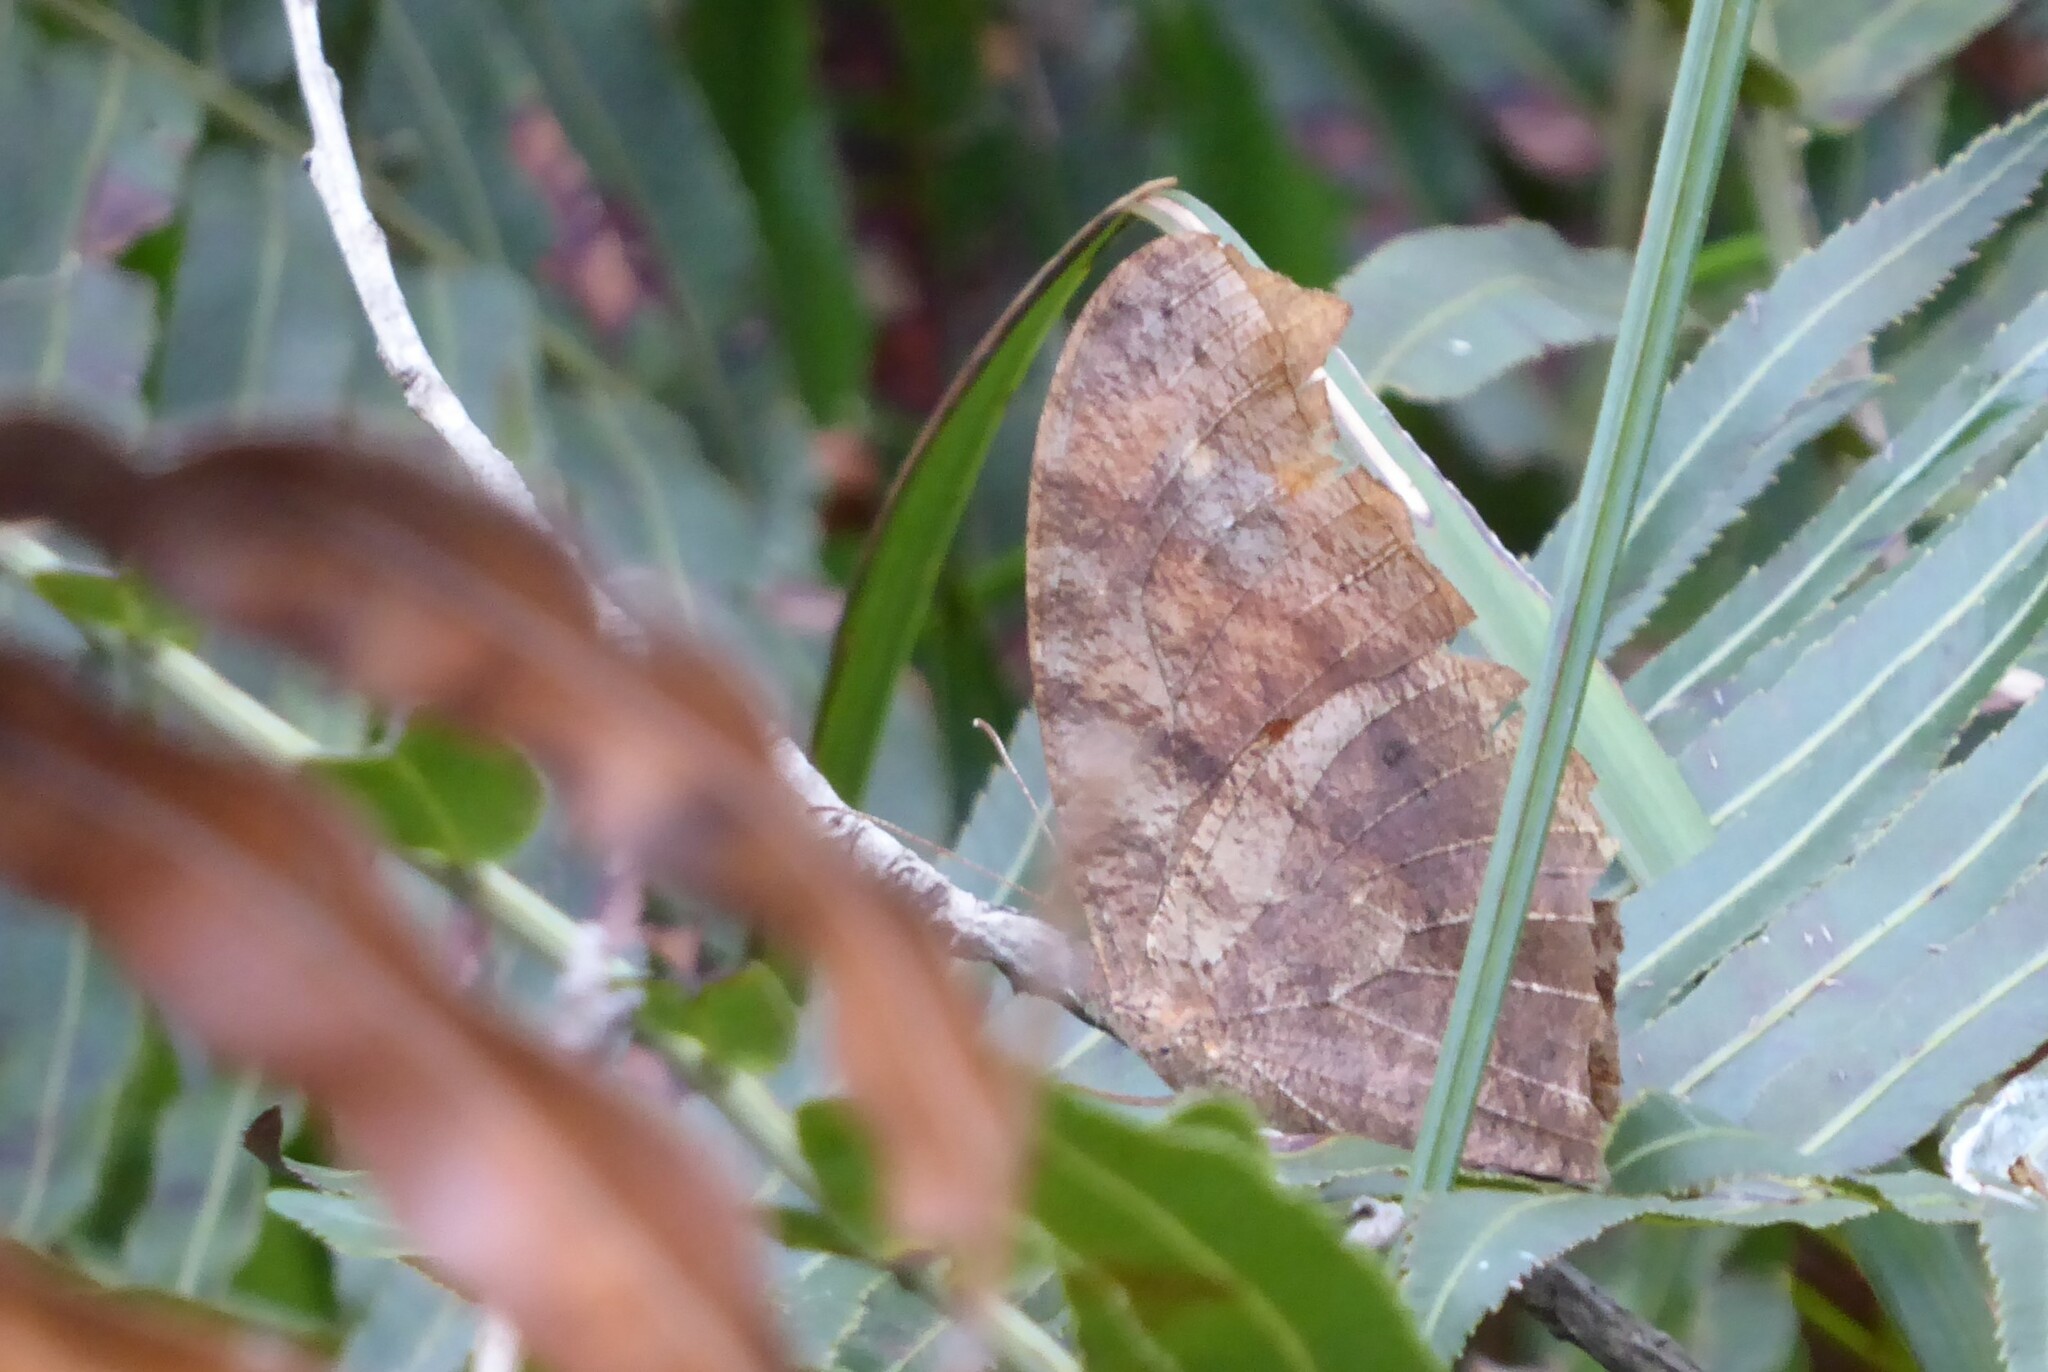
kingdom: Animalia
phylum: Arthropoda
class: Insecta
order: Lepidoptera
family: Nymphalidae
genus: Melanitis
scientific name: Melanitis leda
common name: Twilight brown
